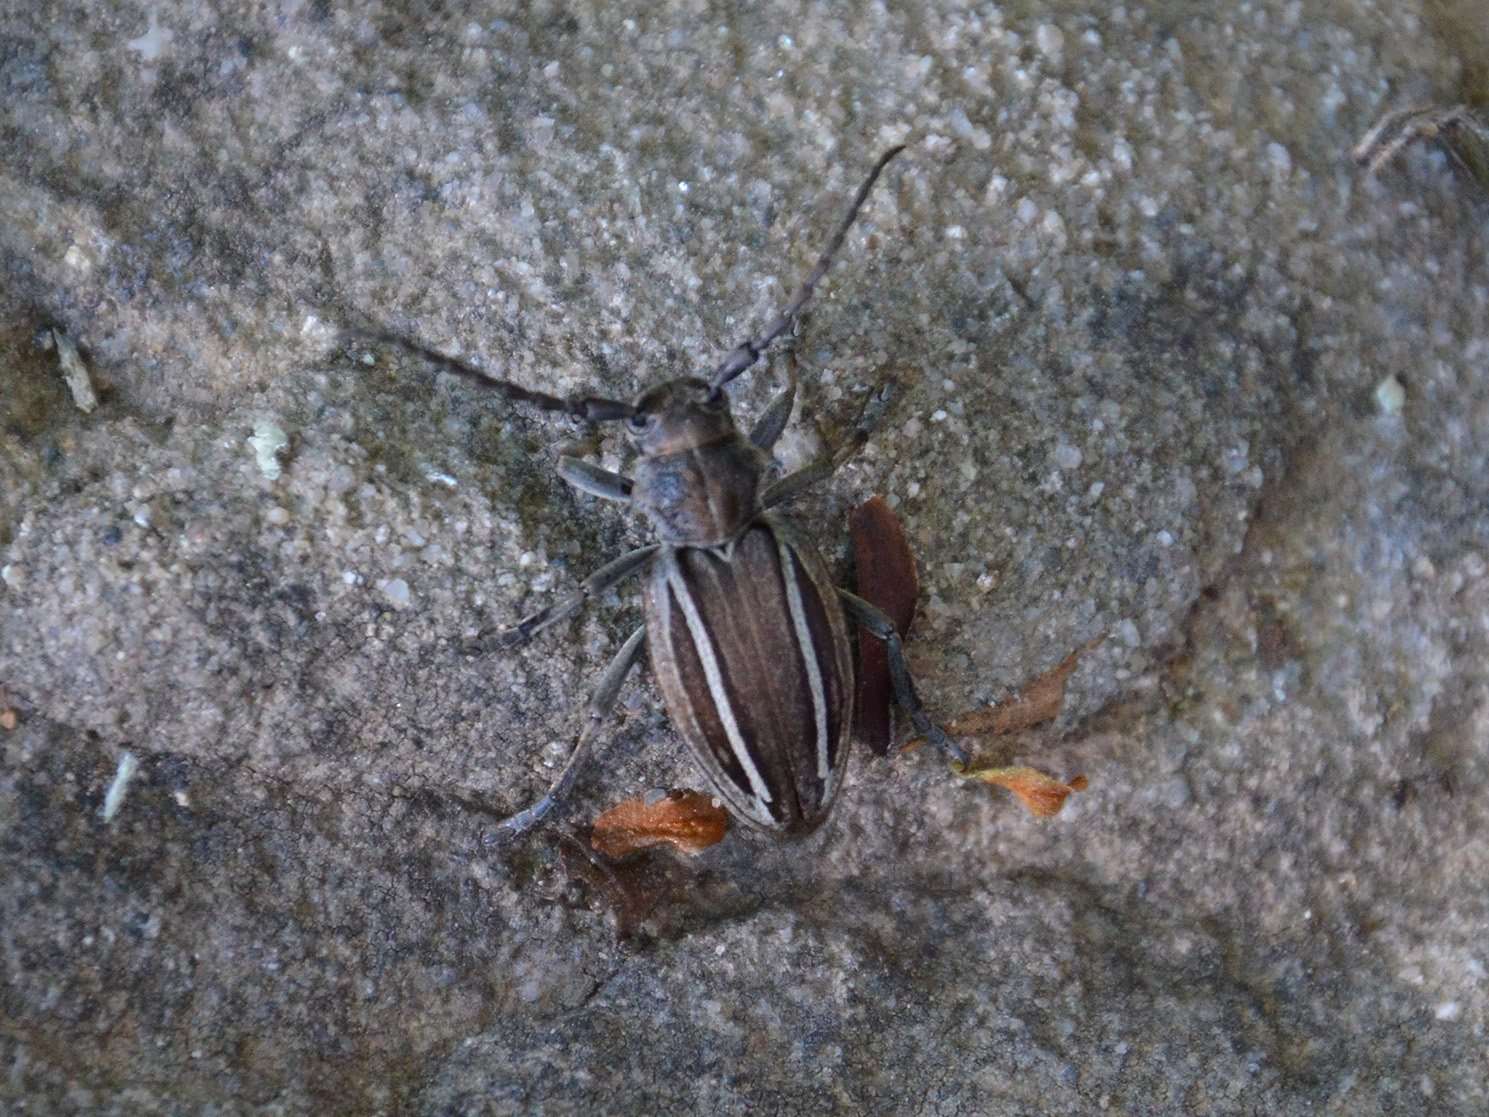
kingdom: Animalia
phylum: Arthropoda
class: Insecta
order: Coleoptera
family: Cerambycidae
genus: Neodorcadion
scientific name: Neodorcadion bilineatum
